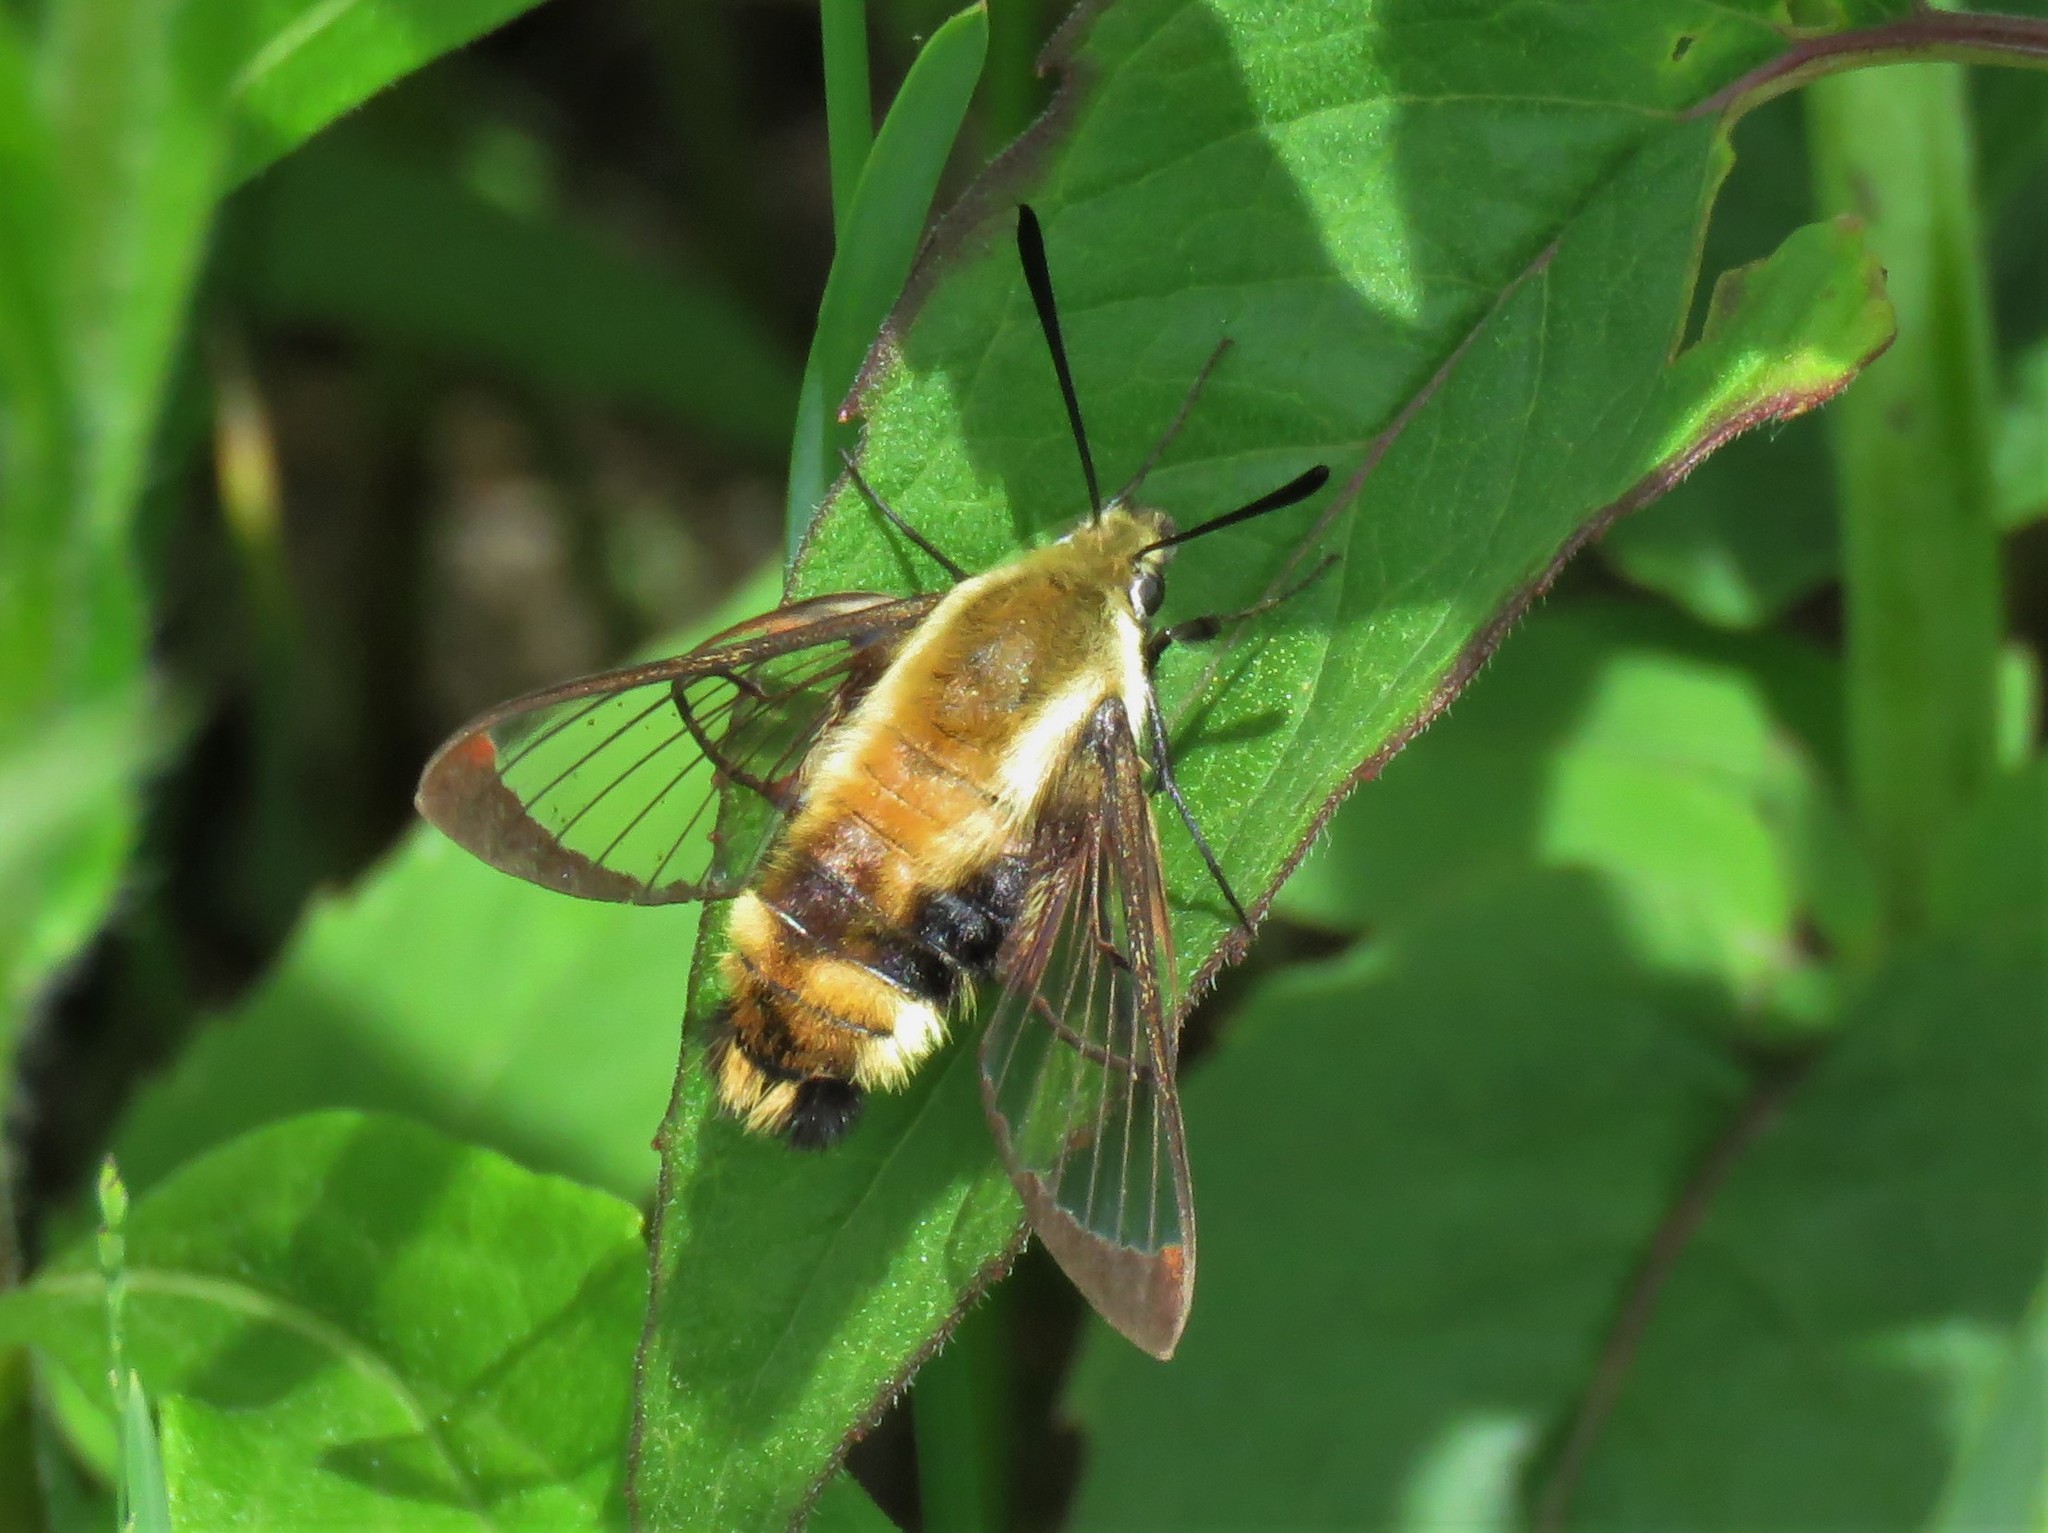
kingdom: Animalia
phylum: Arthropoda
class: Insecta
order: Lepidoptera
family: Sphingidae
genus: Hemaris
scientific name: Hemaris diffinis
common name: Bumblebee moth
